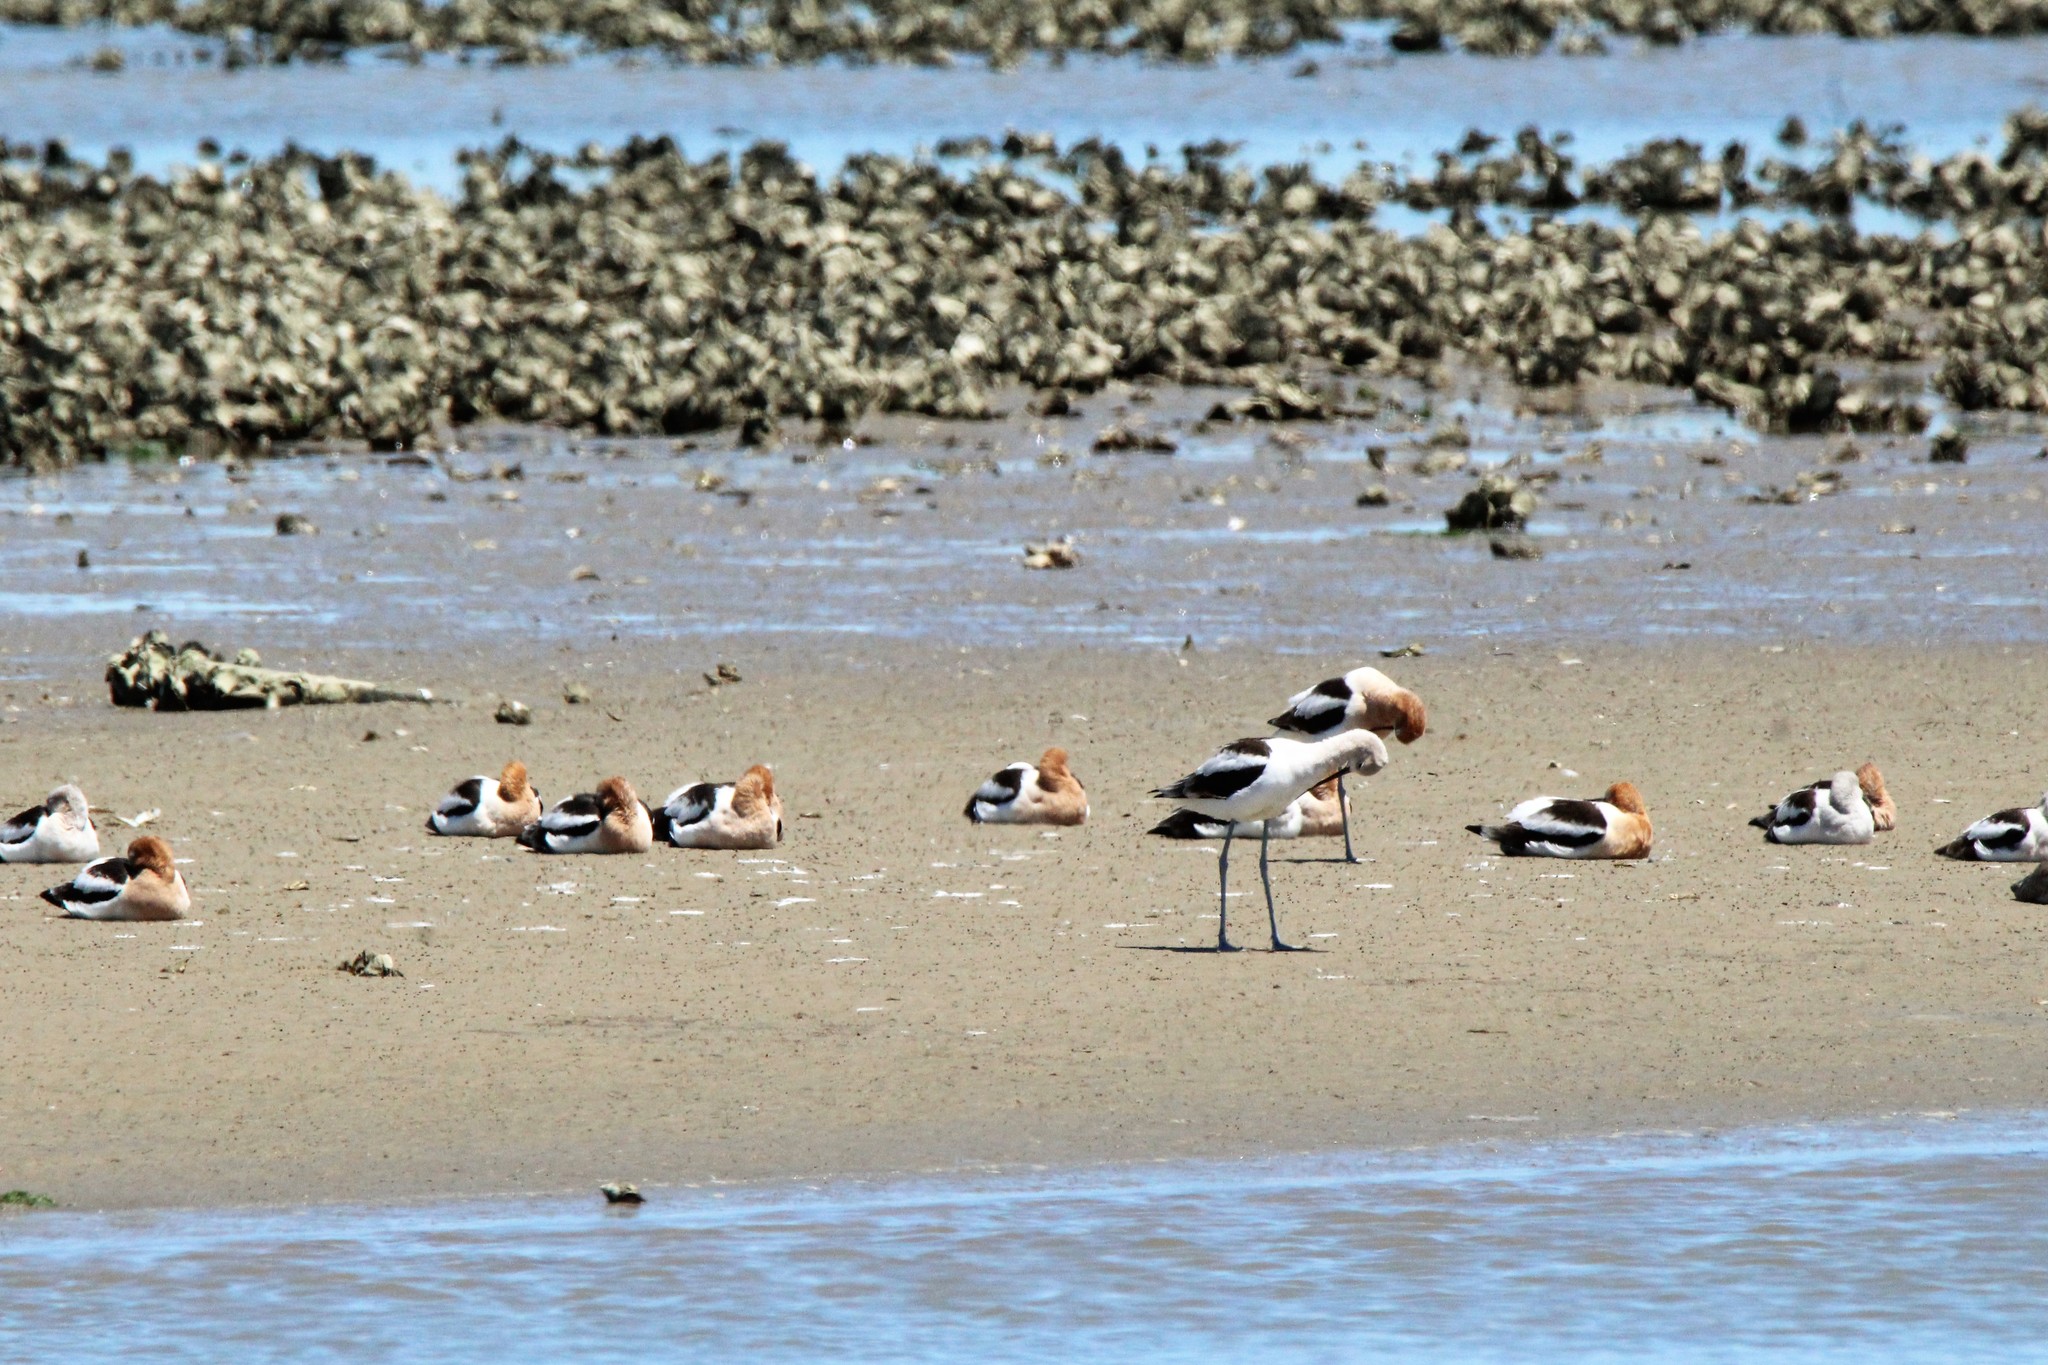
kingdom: Animalia
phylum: Chordata
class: Aves
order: Charadriiformes
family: Recurvirostridae
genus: Recurvirostra
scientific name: Recurvirostra americana
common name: American avocet
